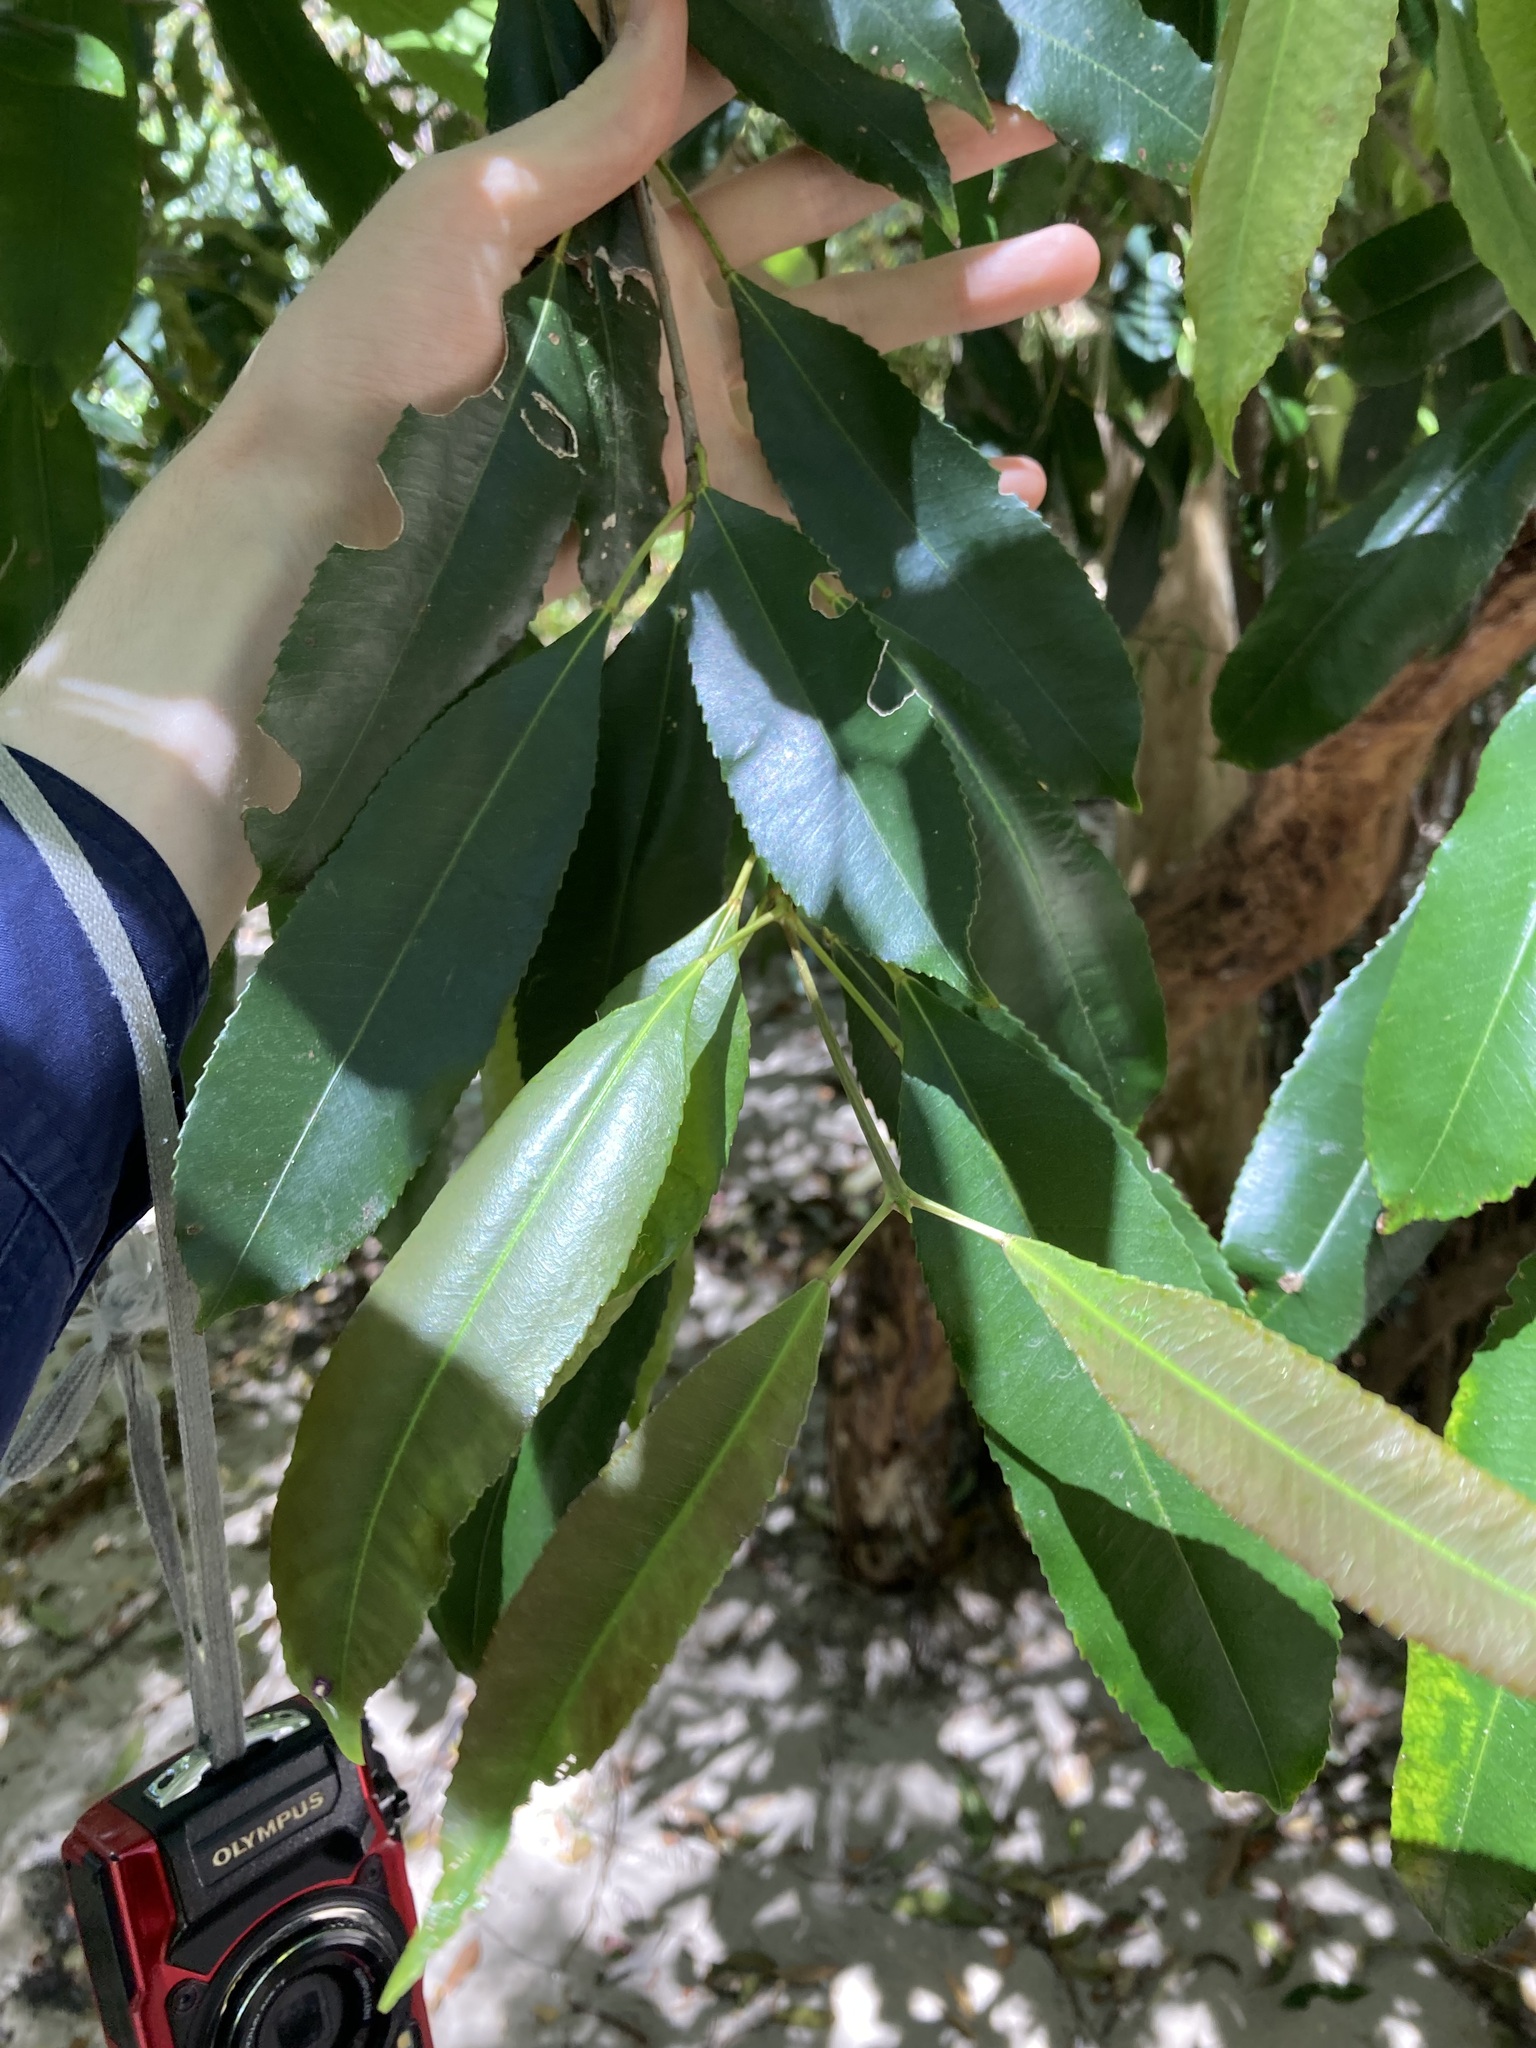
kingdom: Plantae
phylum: Tracheophyta
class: Magnoliopsida
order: Oxalidales
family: Cunoniaceae
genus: Ceratopetalum
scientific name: Ceratopetalum apetalum
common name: Scented satinwood
